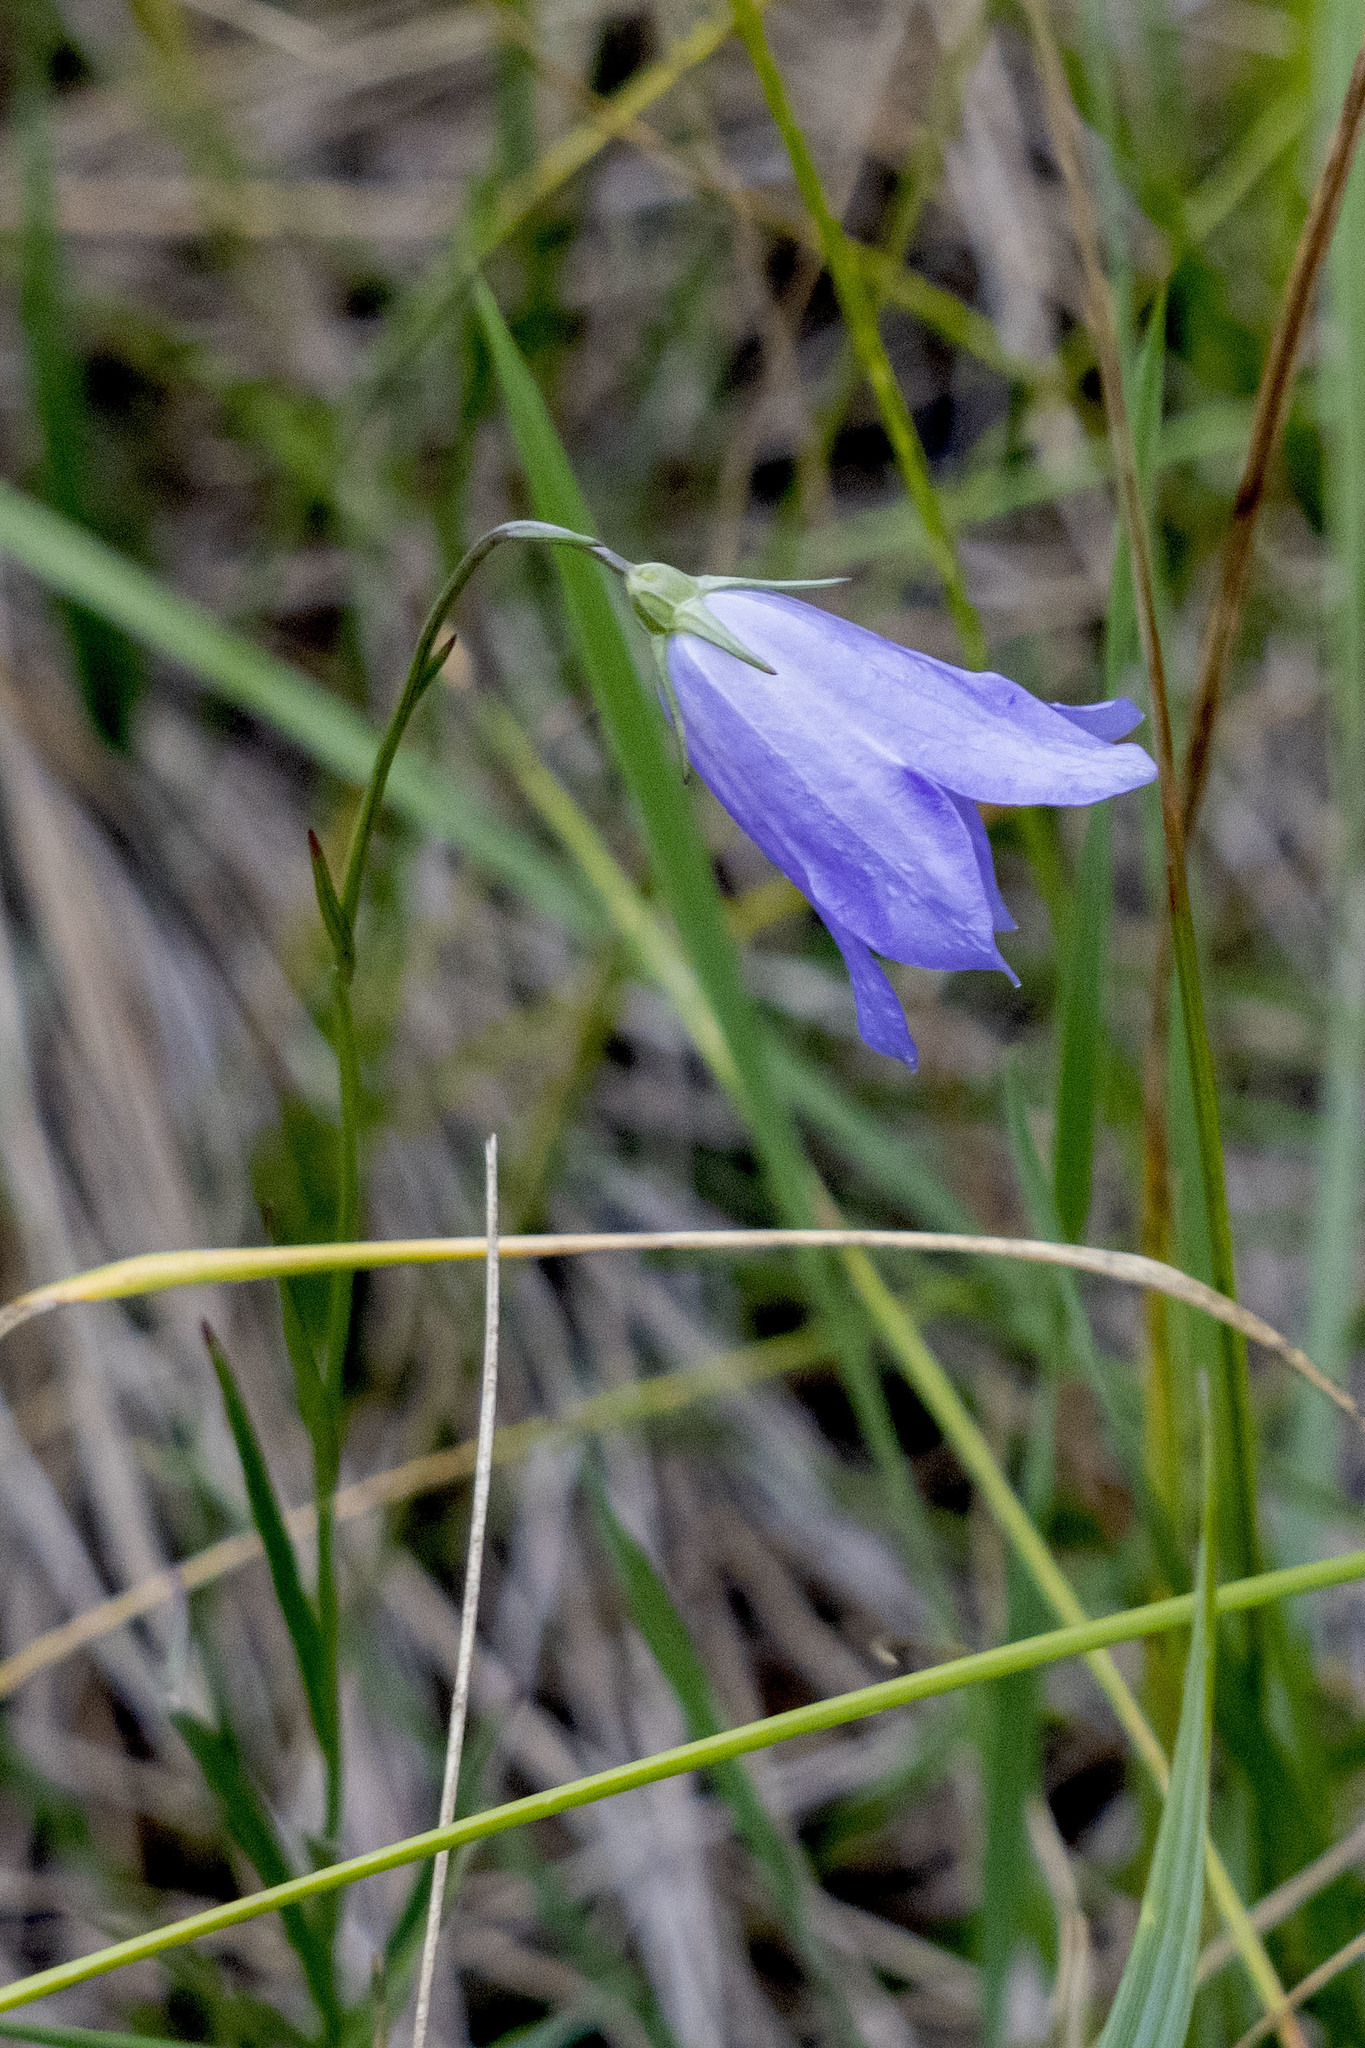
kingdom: Plantae
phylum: Tracheophyta
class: Magnoliopsida
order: Asterales
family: Campanulaceae
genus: Campanula
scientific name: Campanula alaskana
